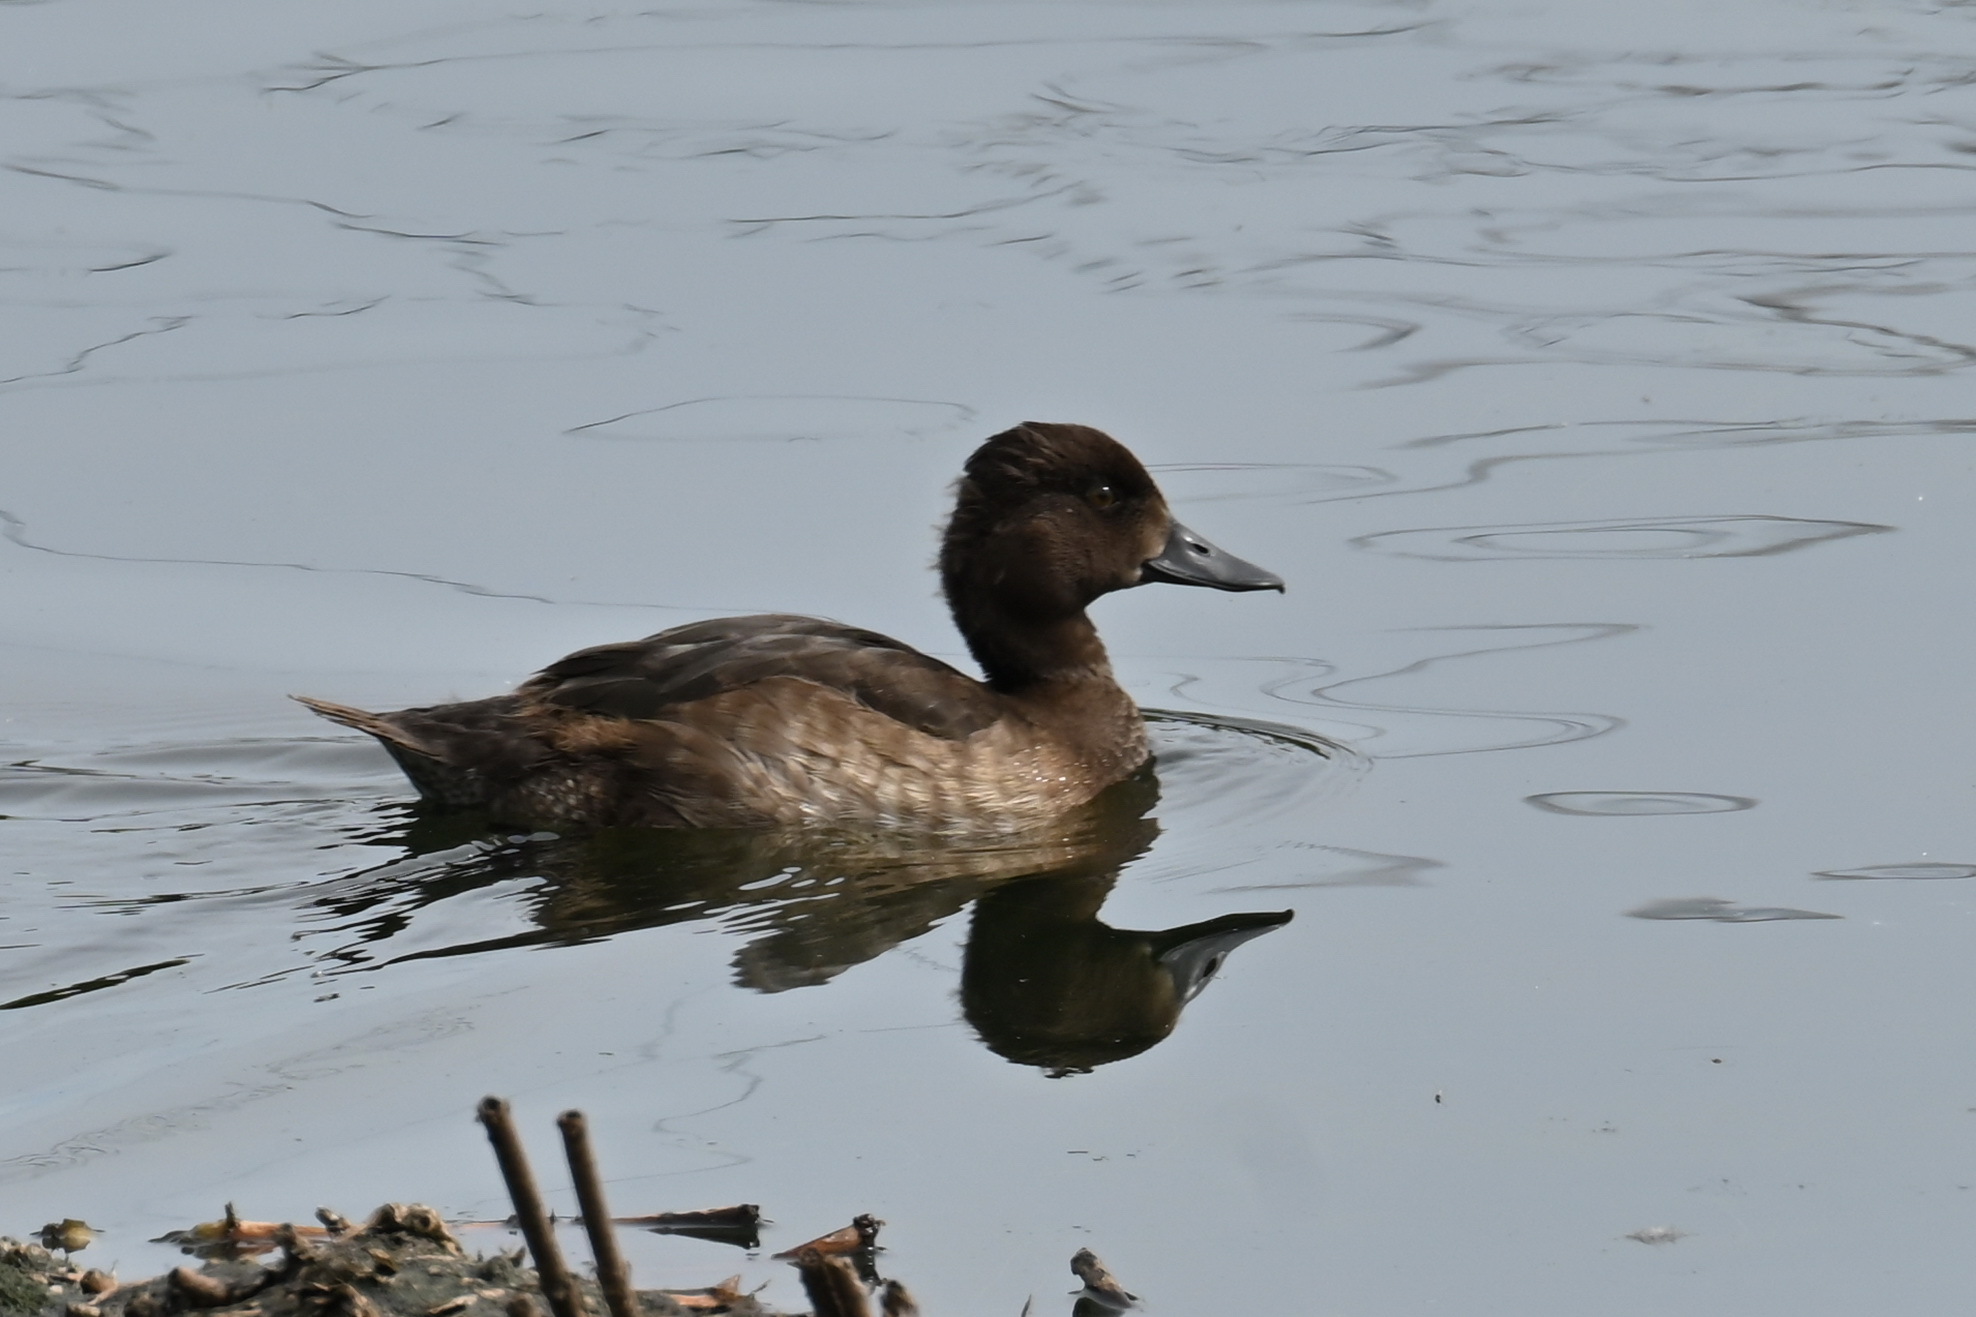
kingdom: Animalia
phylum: Chordata
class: Aves
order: Anseriformes
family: Anatidae
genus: Aythya
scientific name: Aythya fuligula
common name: Tufted duck
